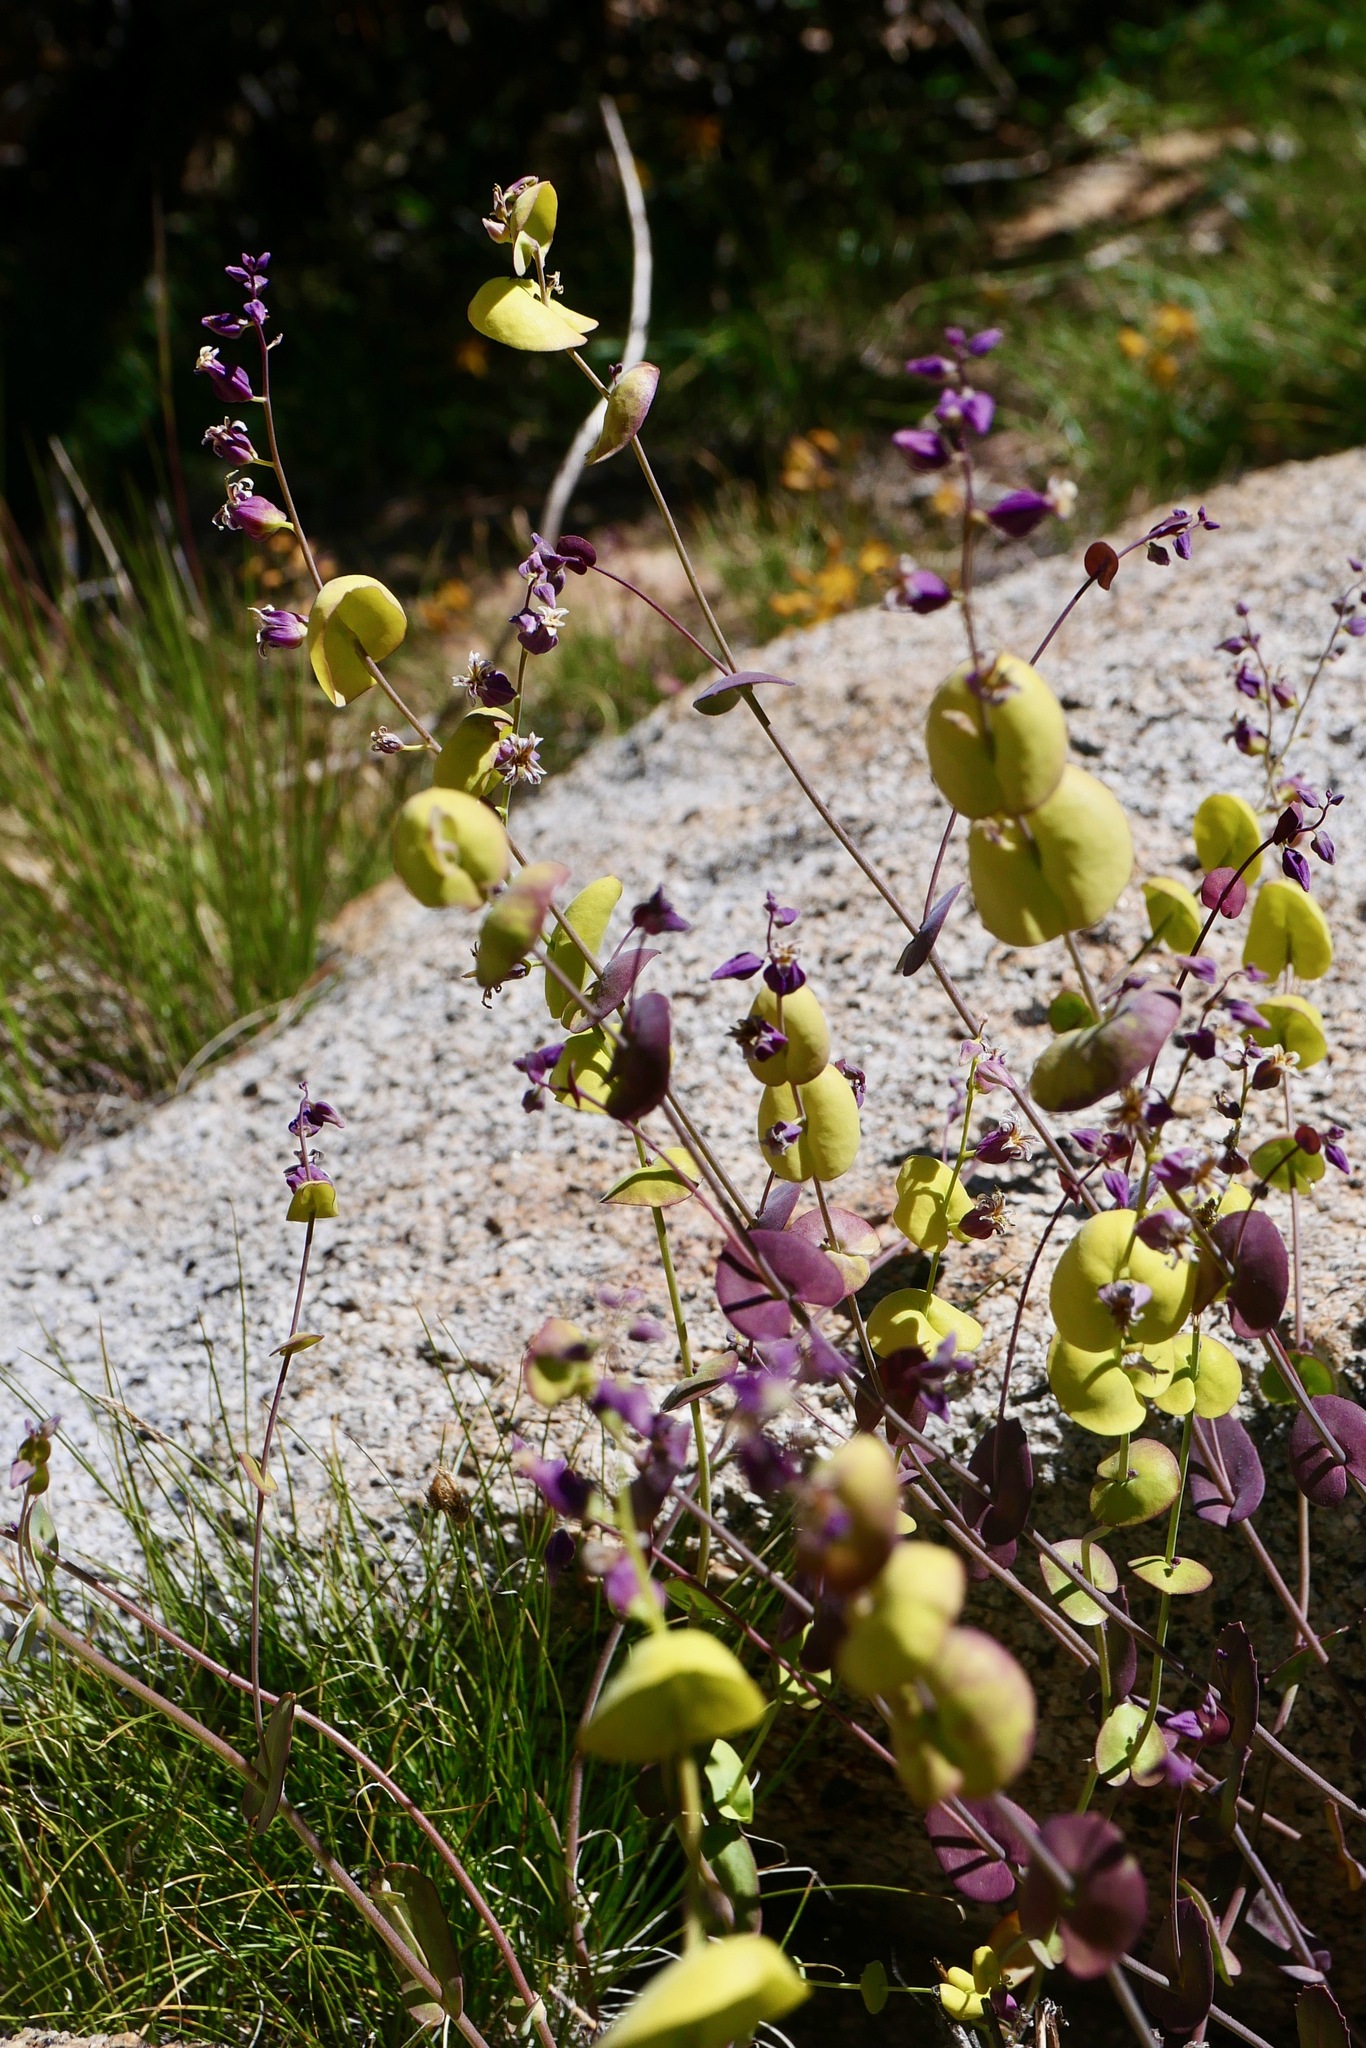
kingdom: Plantae
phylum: Tracheophyta
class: Magnoliopsida
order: Brassicales
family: Brassicaceae
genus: Streptanthus
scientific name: Streptanthus tortuosus
